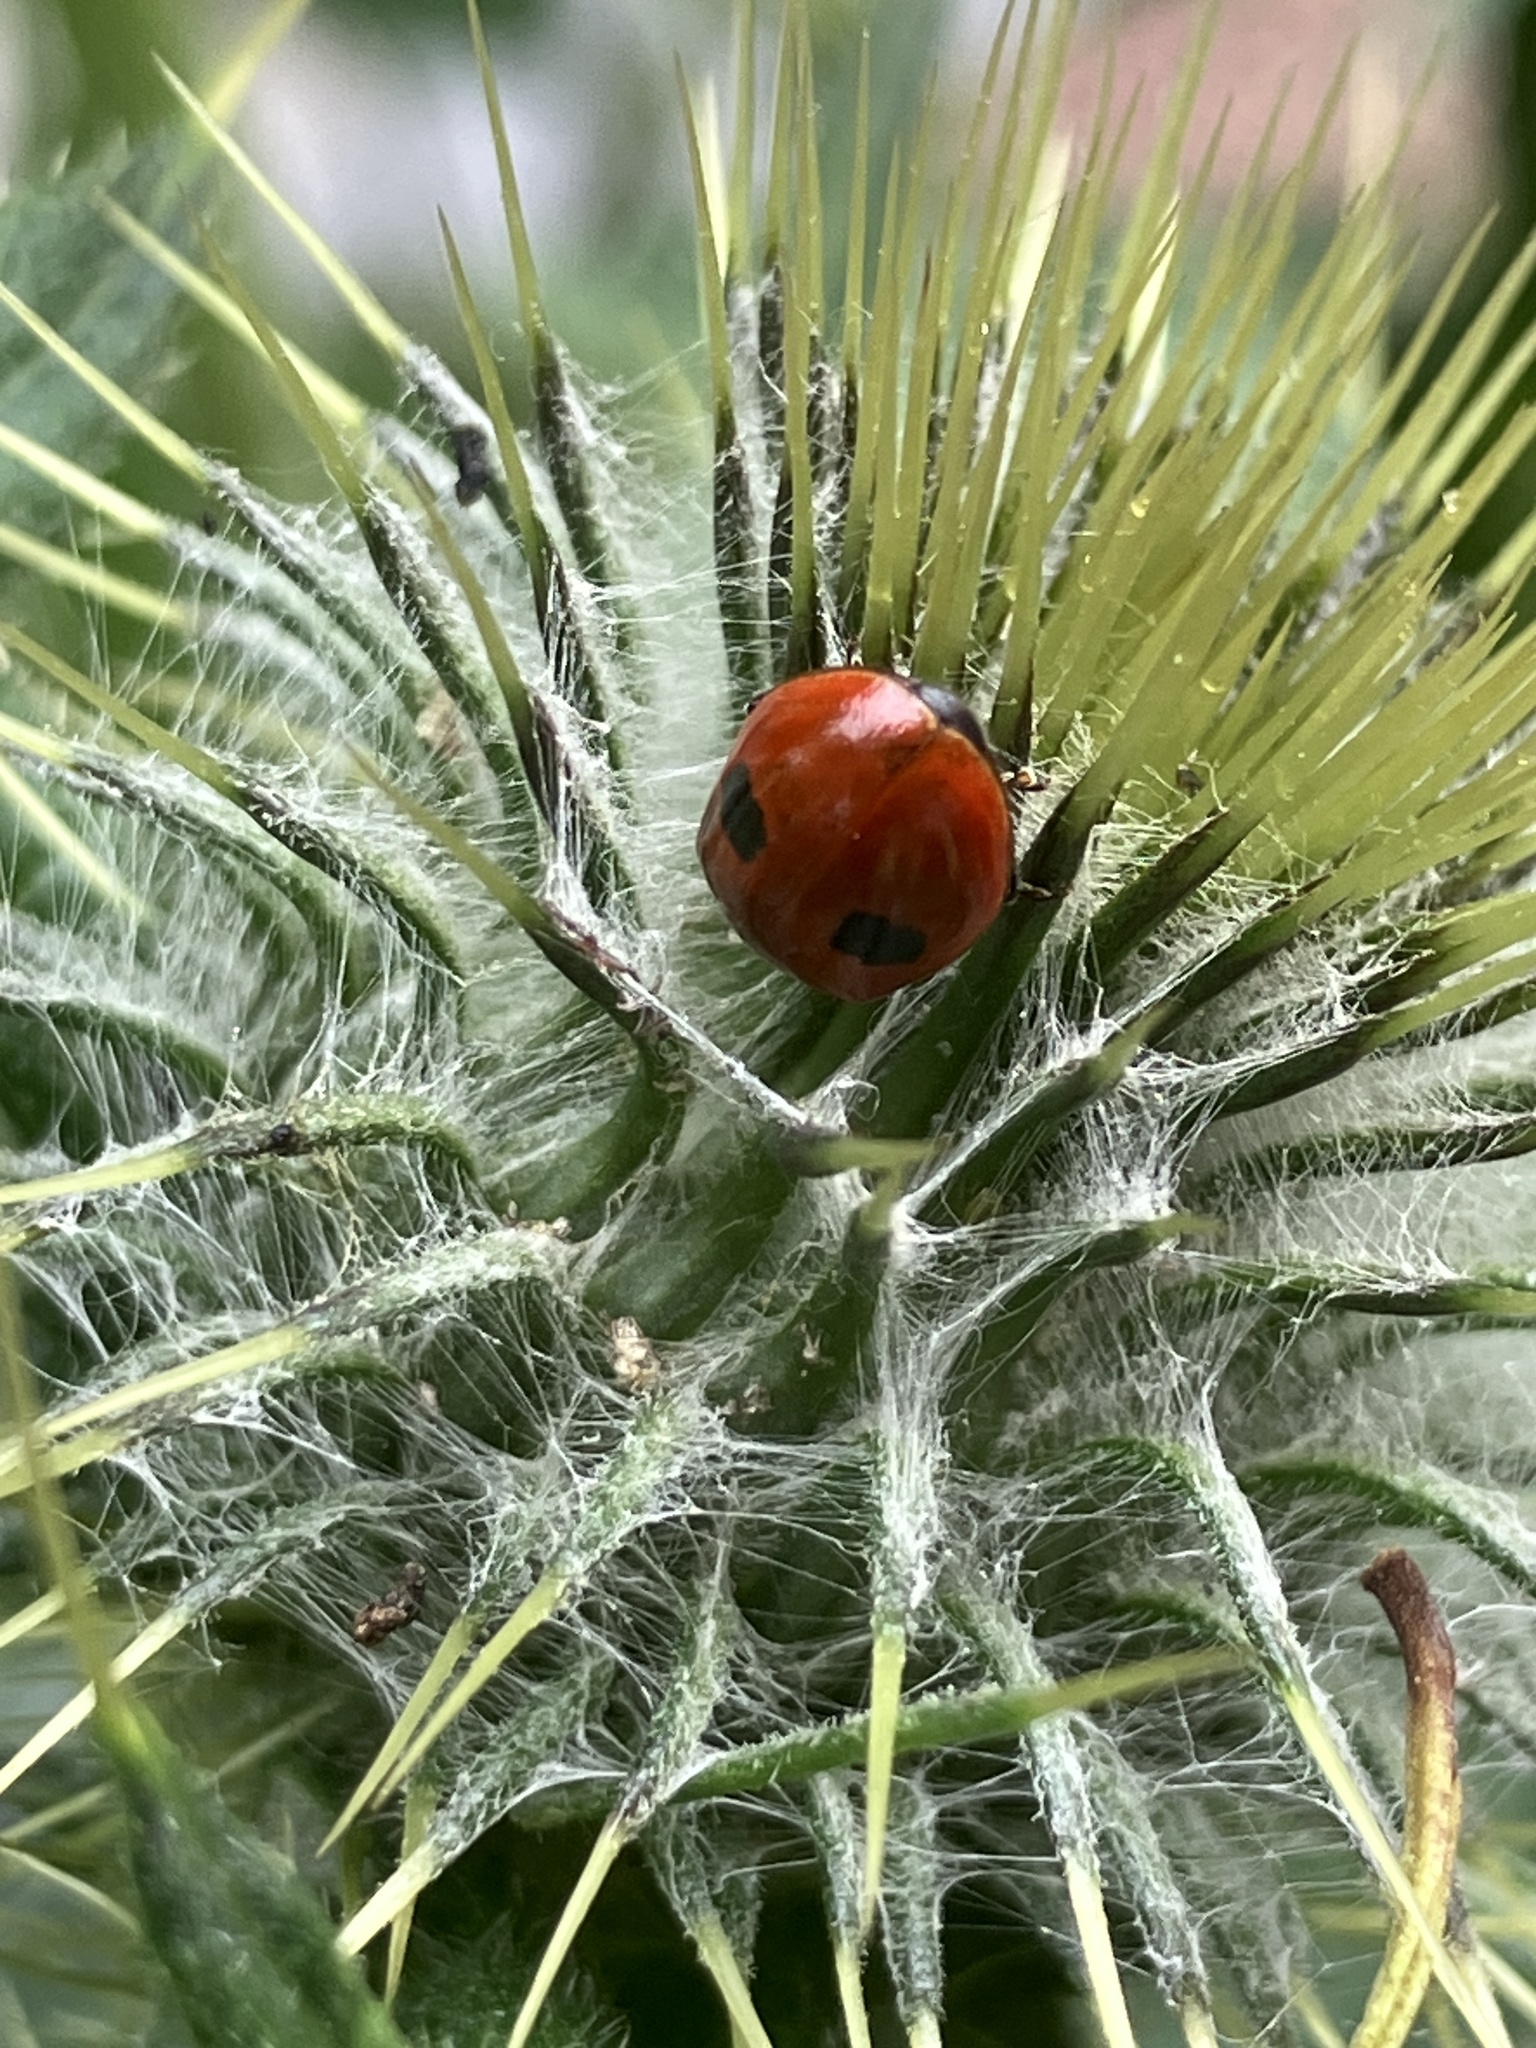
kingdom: Animalia
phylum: Arthropoda
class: Insecta
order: Coleoptera
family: Coccinellidae
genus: Adalia
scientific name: Adalia bipunctata
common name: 2-spot ladybird
